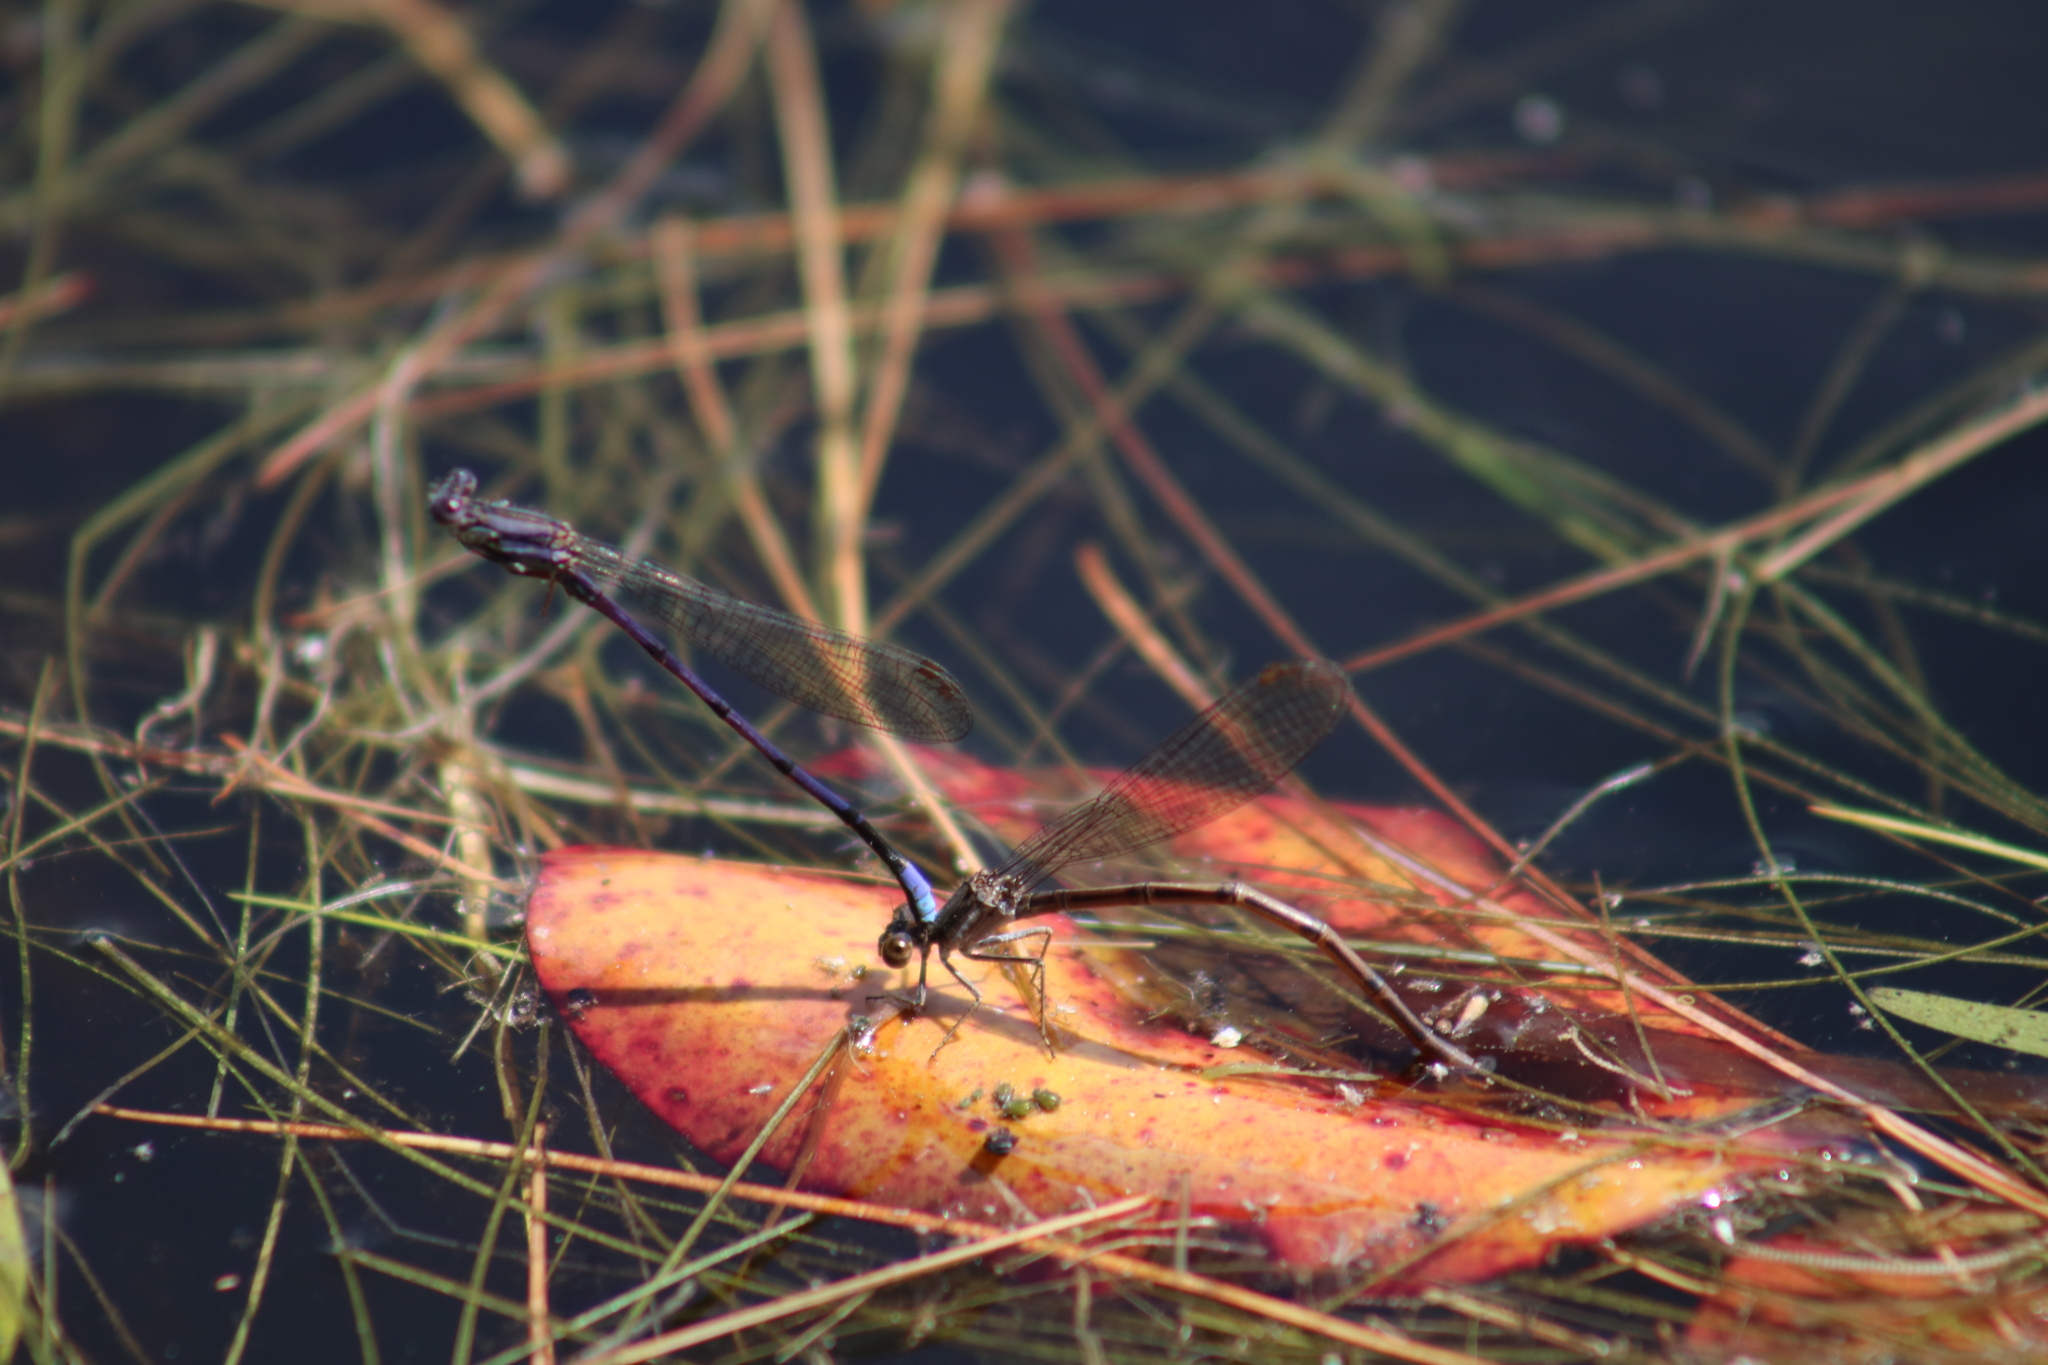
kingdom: Animalia
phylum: Arthropoda
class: Insecta
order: Odonata
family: Coenagrionidae
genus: Argia
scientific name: Argia fumipennis
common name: Variable dancer
